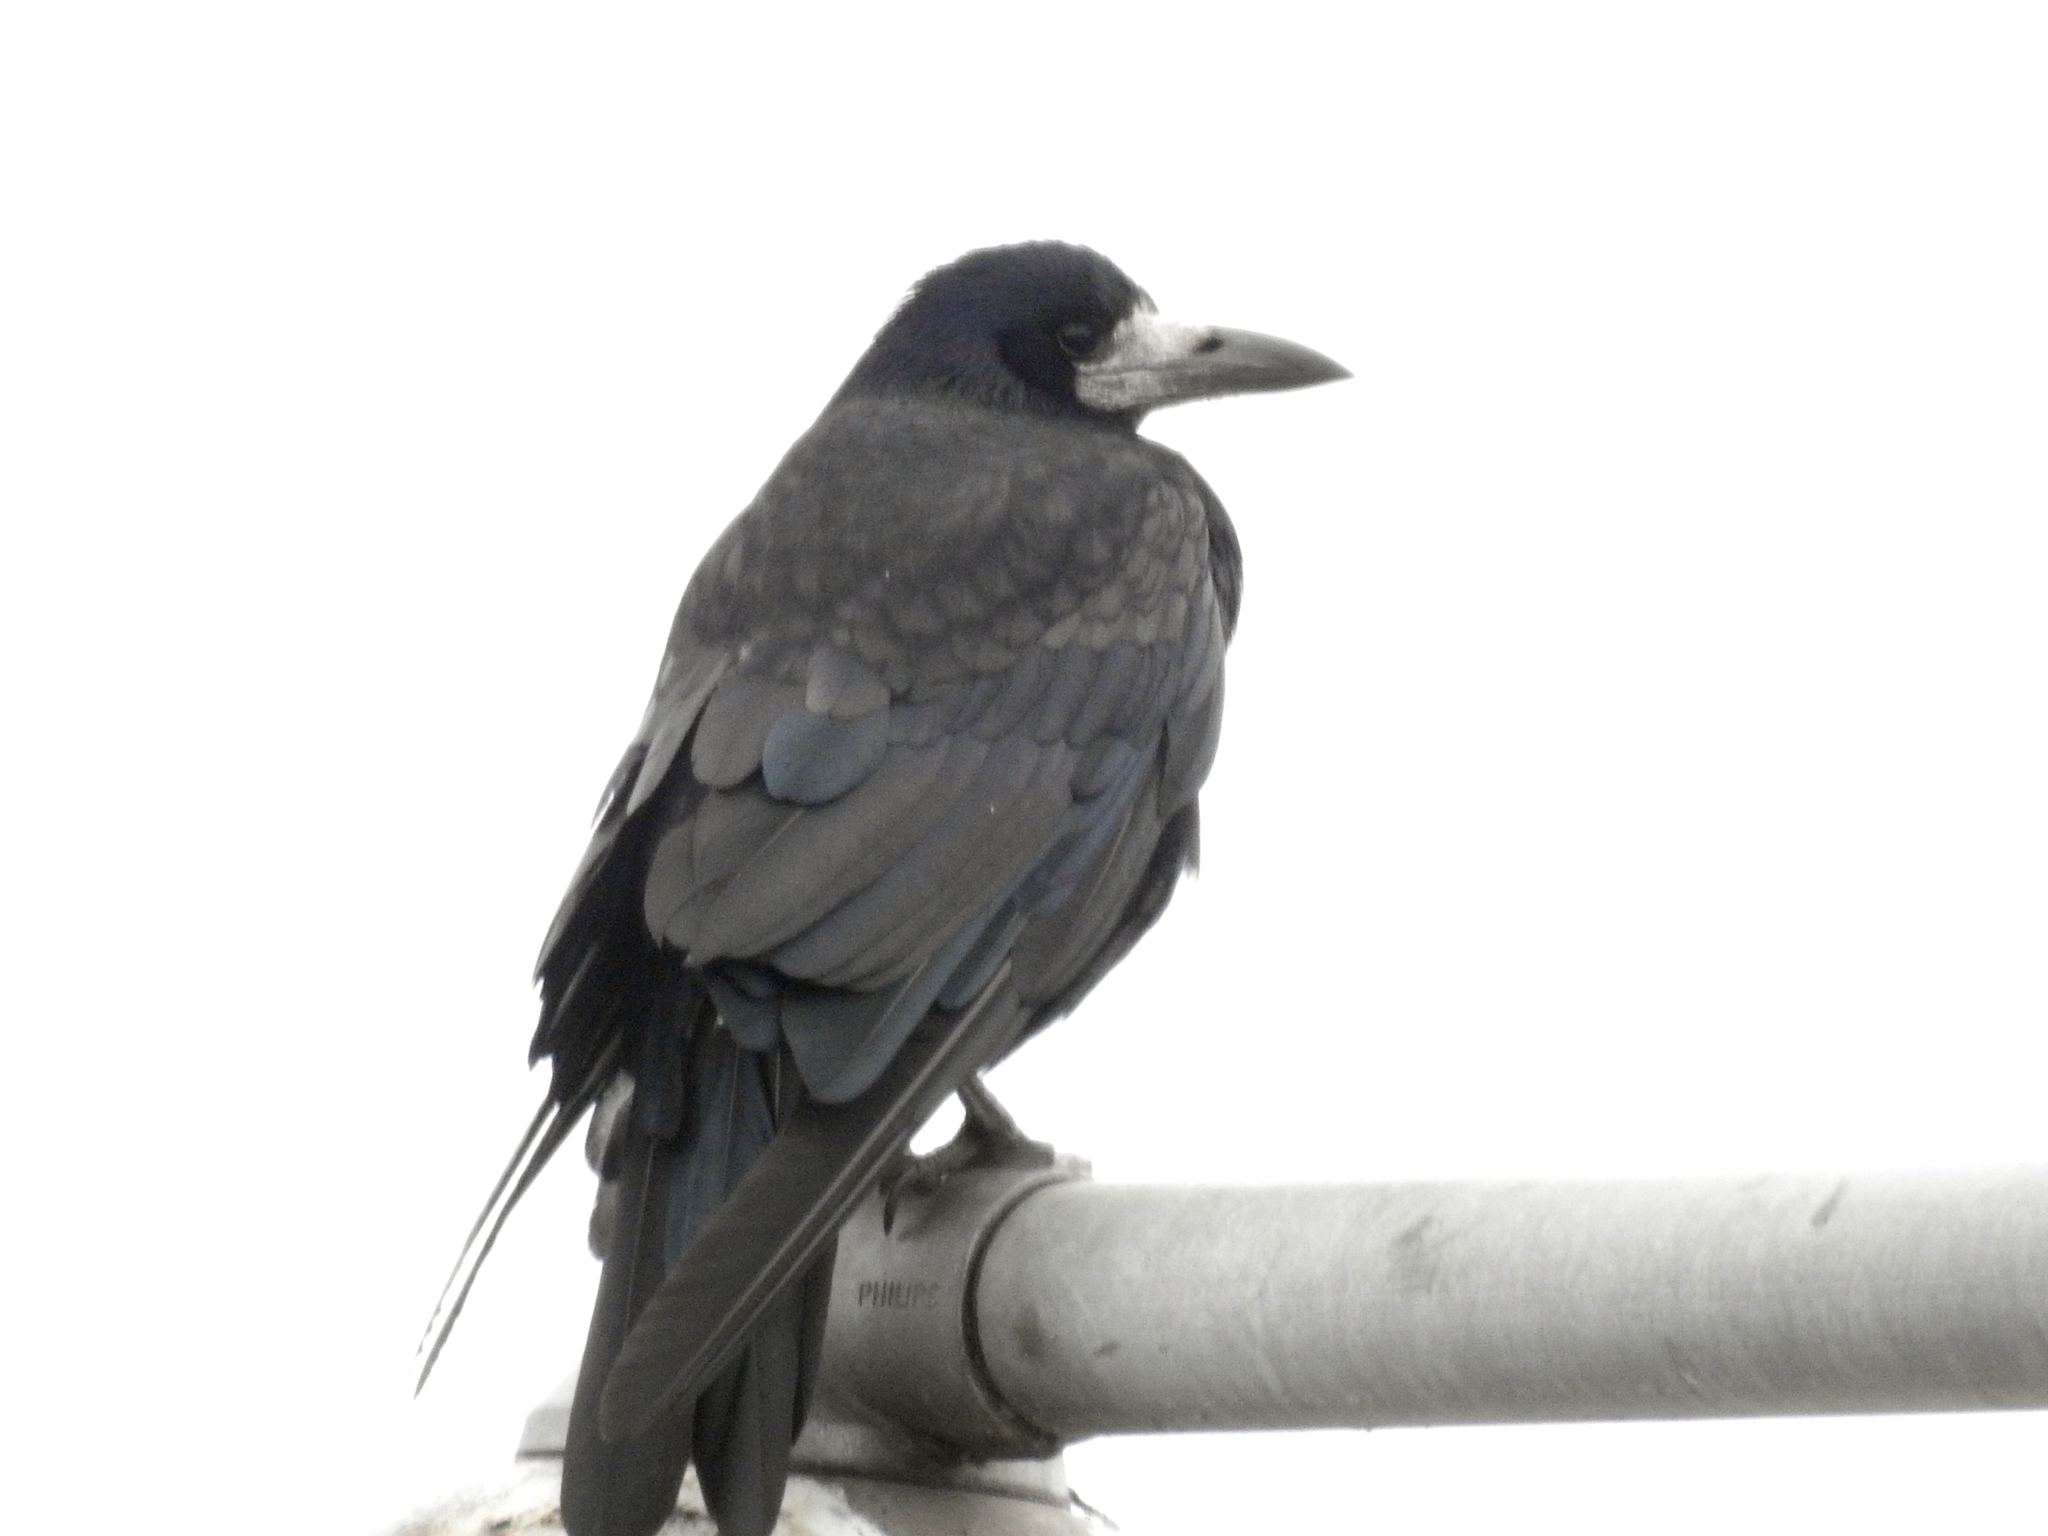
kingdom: Animalia
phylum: Chordata
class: Aves
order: Passeriformes
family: Corvidae
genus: Corvus
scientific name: Corvus frugilegus
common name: Rook
